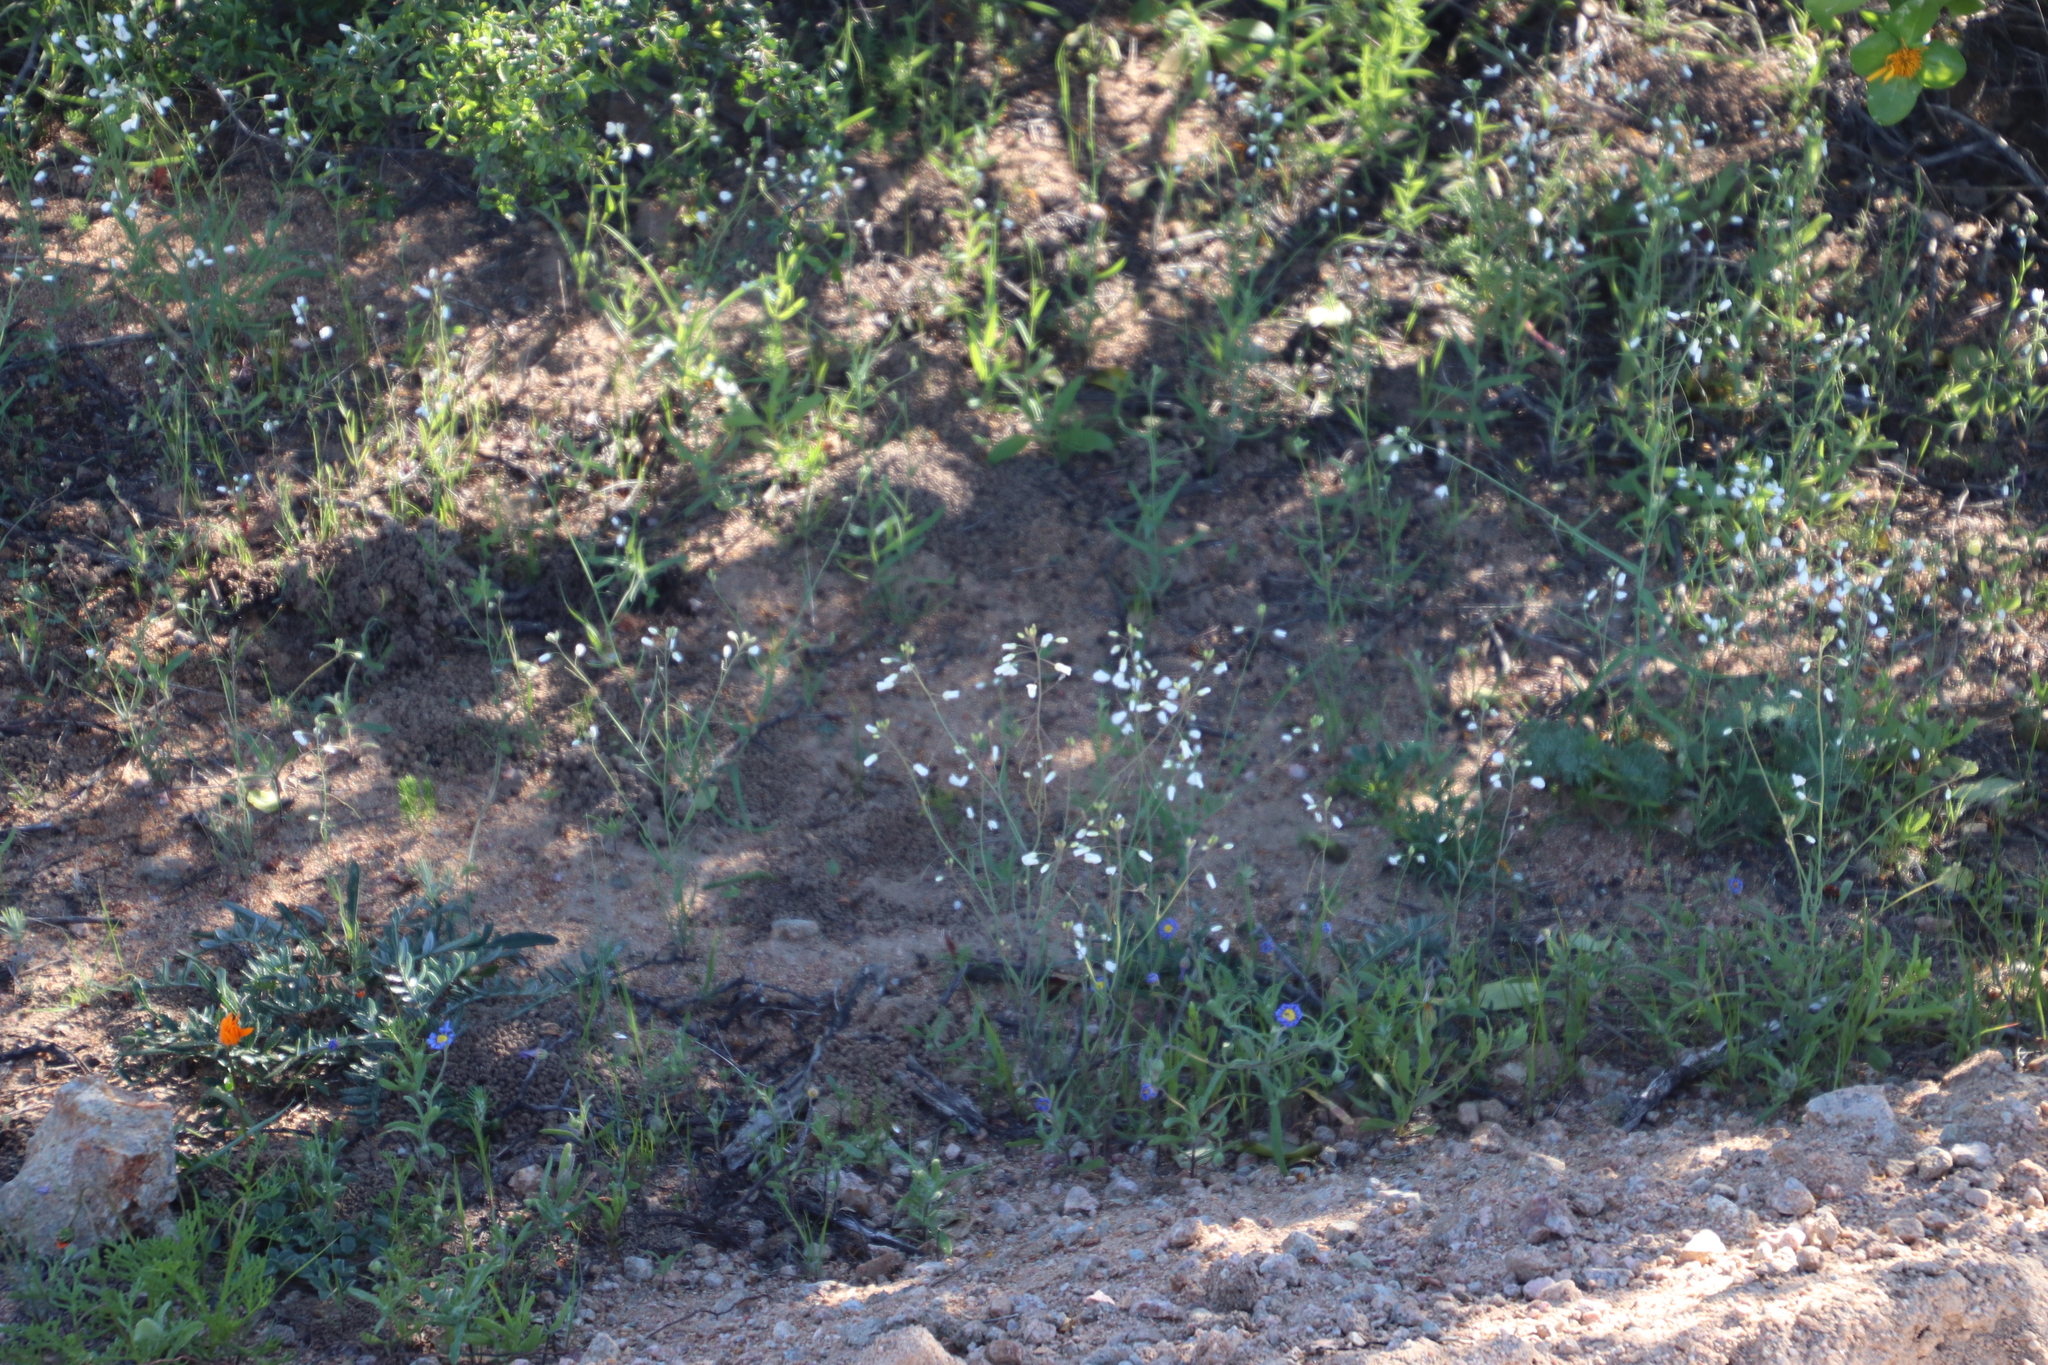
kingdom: Plantae
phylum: Tracheophyta
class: Magnoliopsida
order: Brassicales
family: Brassicaceae
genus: Heliophila
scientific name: Heliophila amplexicaulis
